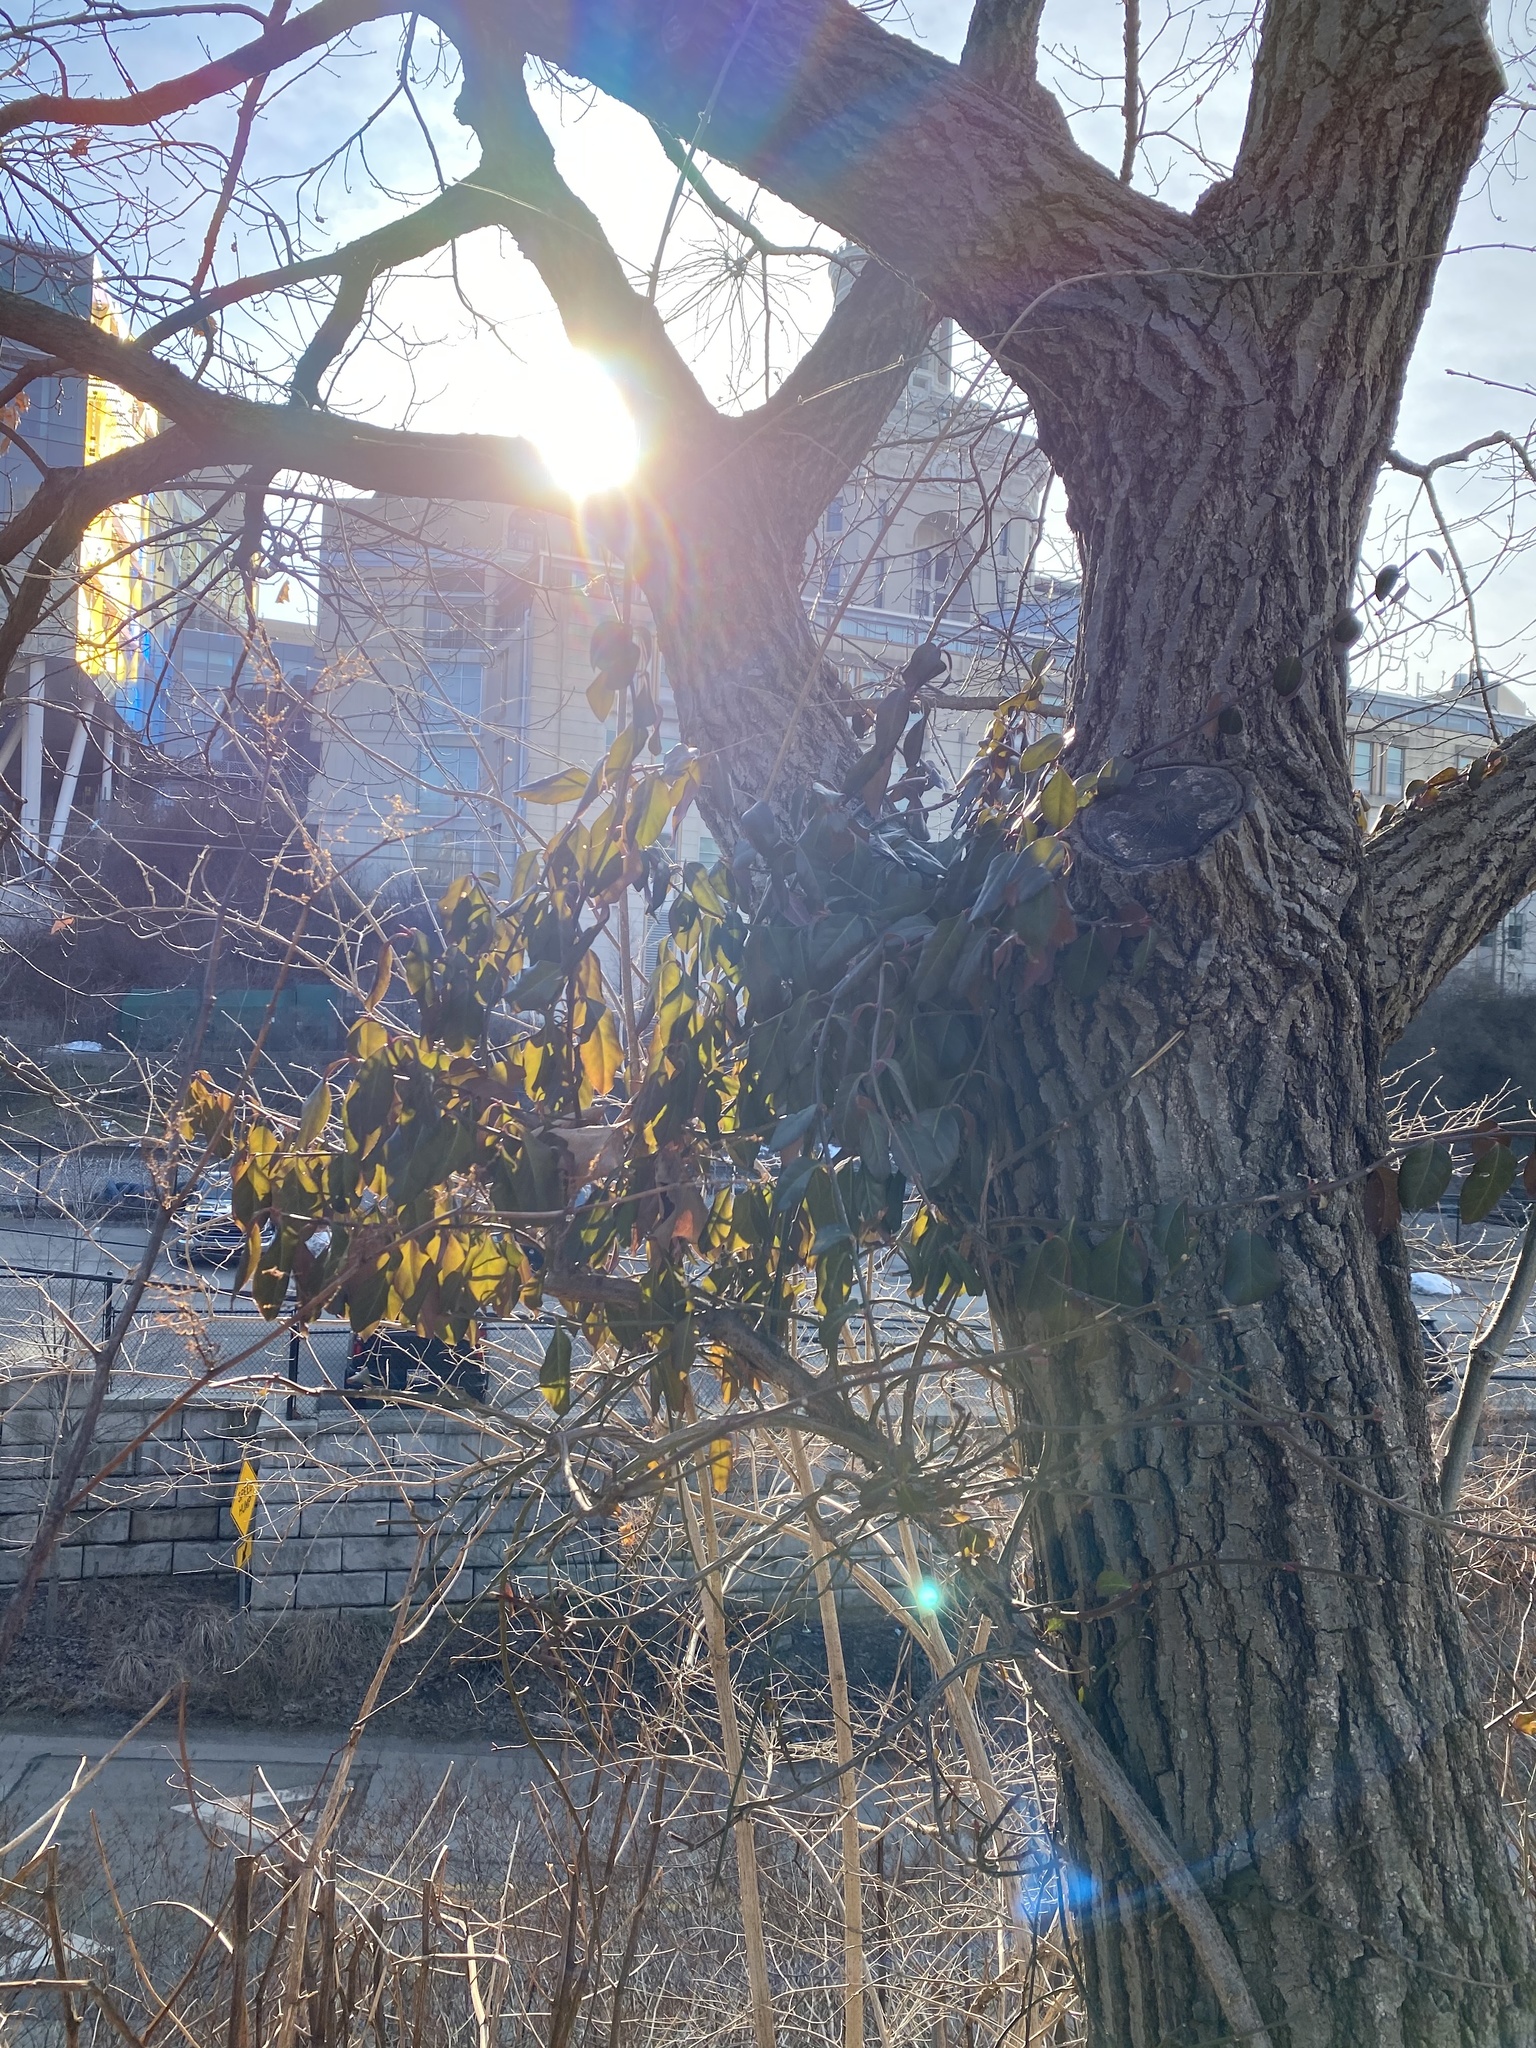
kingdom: Plantae
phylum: Tracheophyta
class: Magnoliopsida
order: Celastrales
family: Celastraceae
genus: Euonymus
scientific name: Euonymus fortunei
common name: Climbing euonymus
